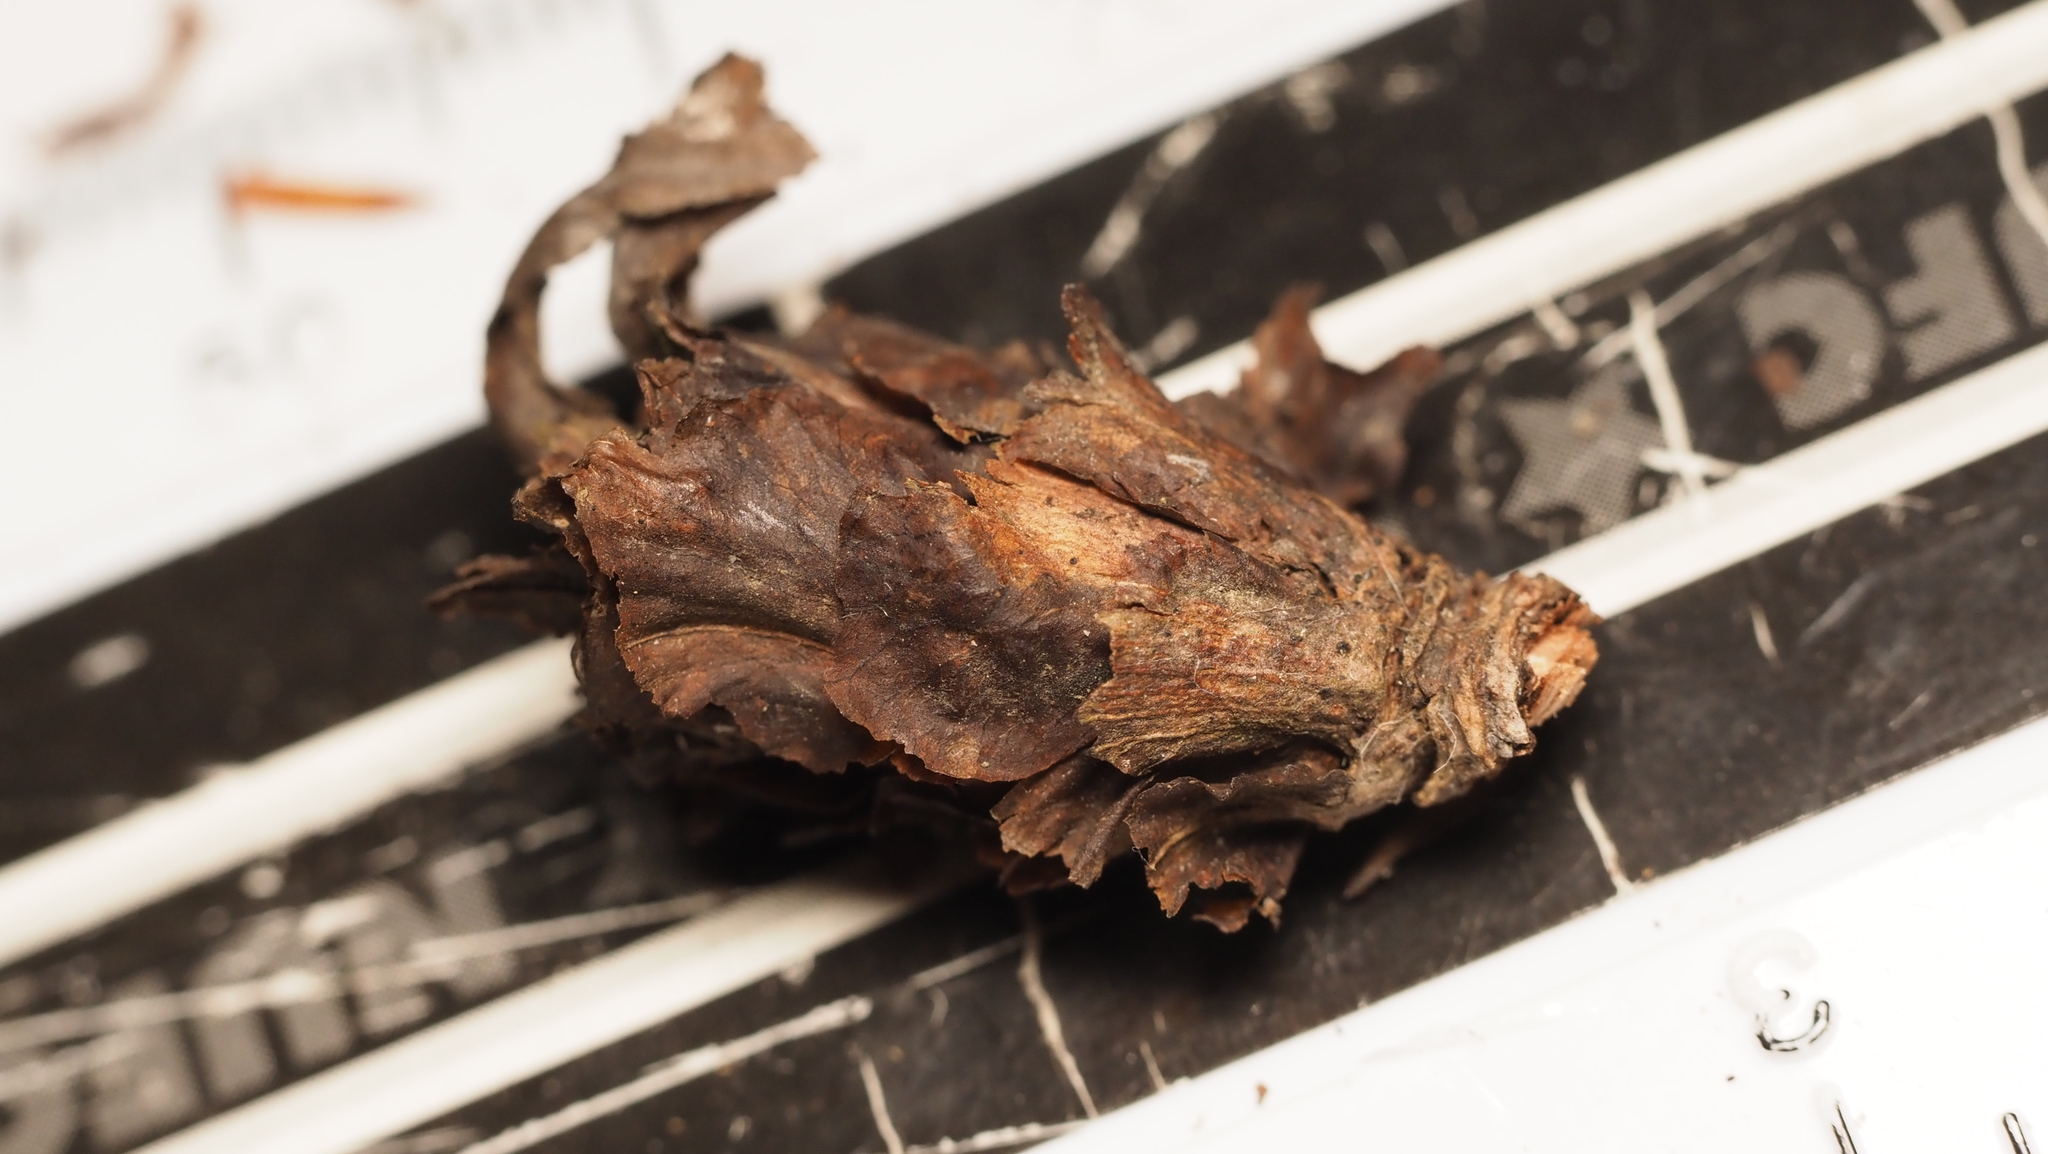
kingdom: Animalia
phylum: Arthropoda
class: Insecta
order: Diptera
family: Cecidomyiidae
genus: Rabdophaga
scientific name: Rabdophaga salicisbrassicoides
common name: Willow cabbagegall midge
